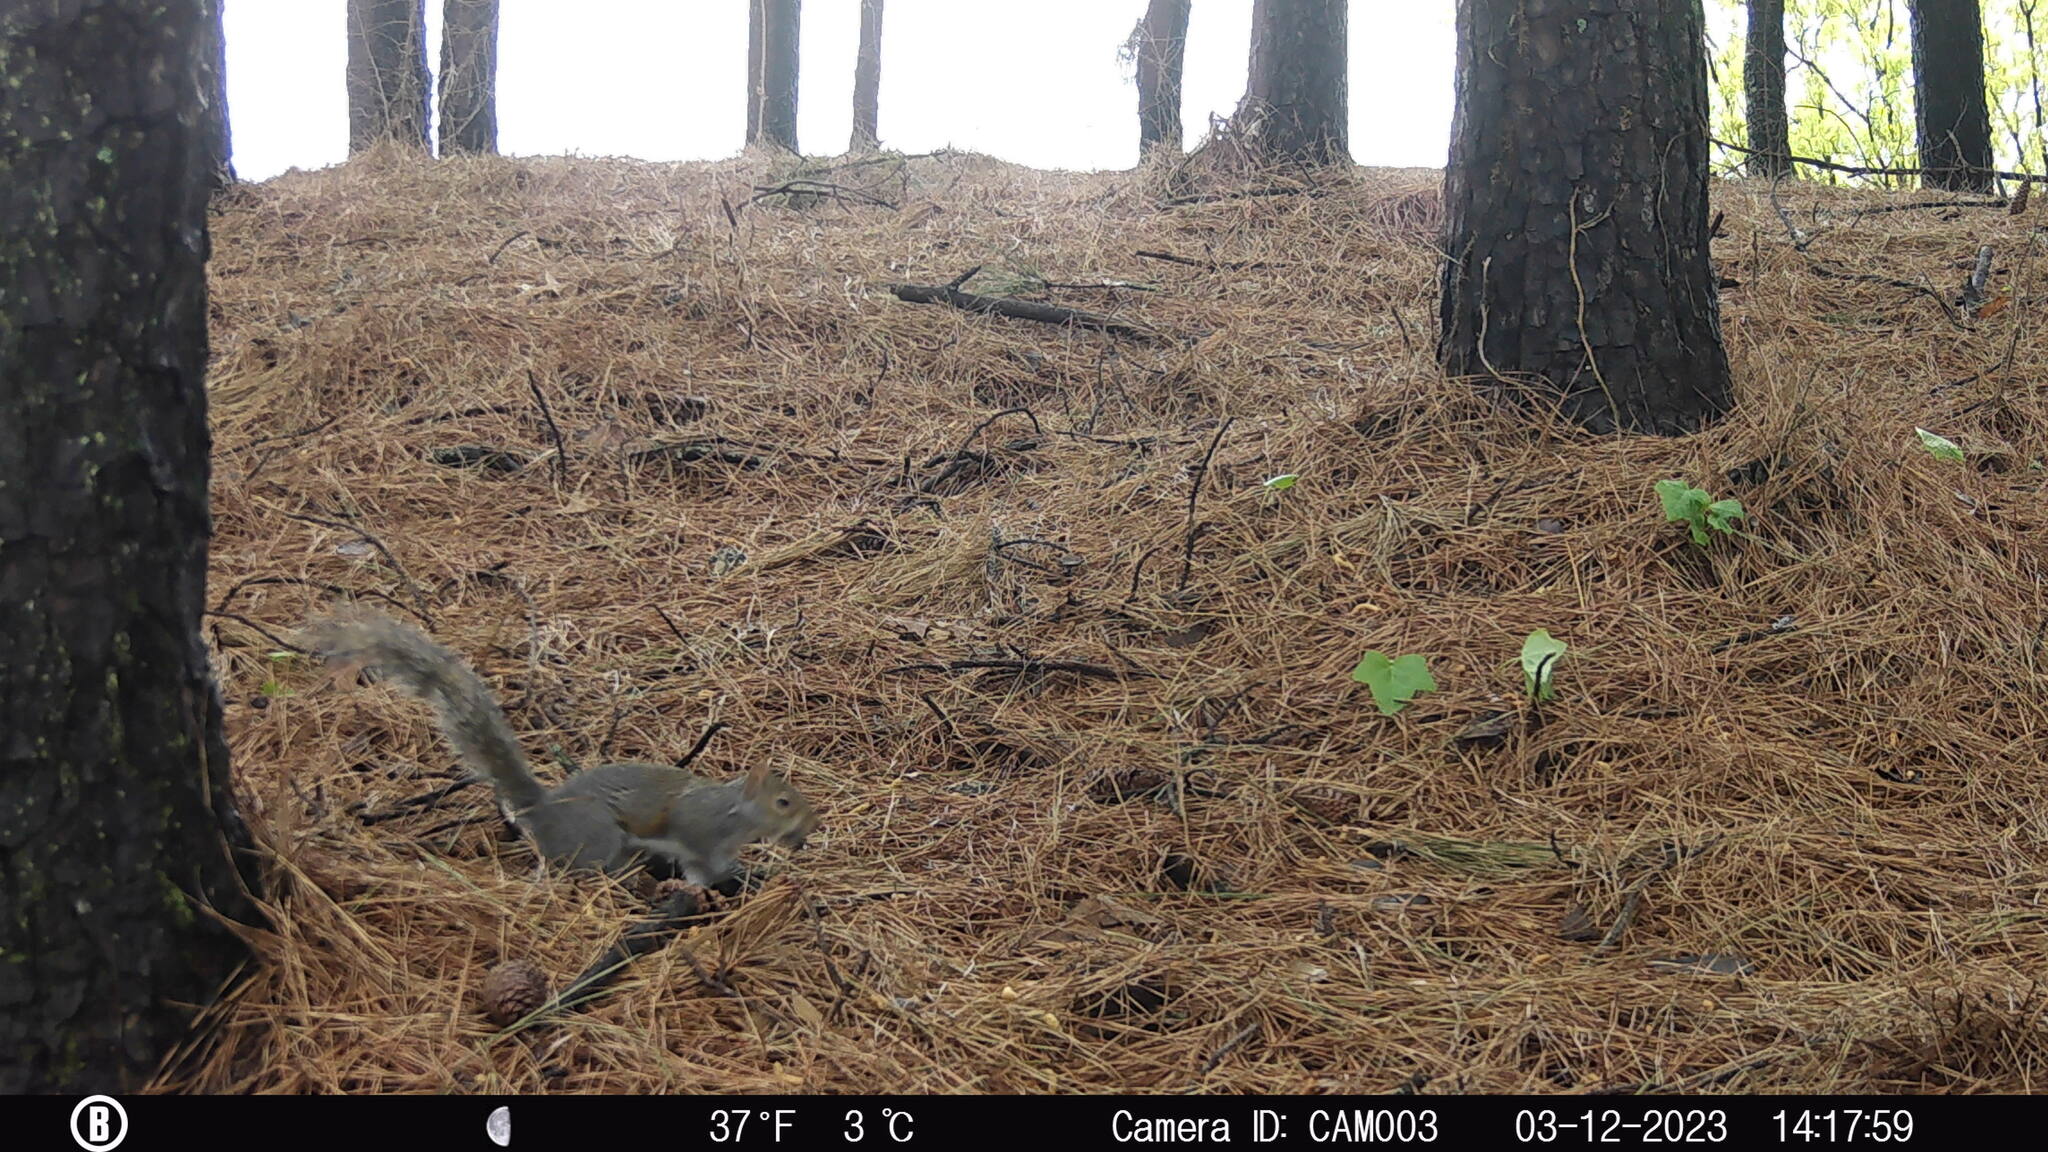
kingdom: Animalia
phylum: Chordata
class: Mammalia
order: Rodentia
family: Sciuridae
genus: Sciurus
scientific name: Sciurus carolinensis
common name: Eastern gray squirrel
